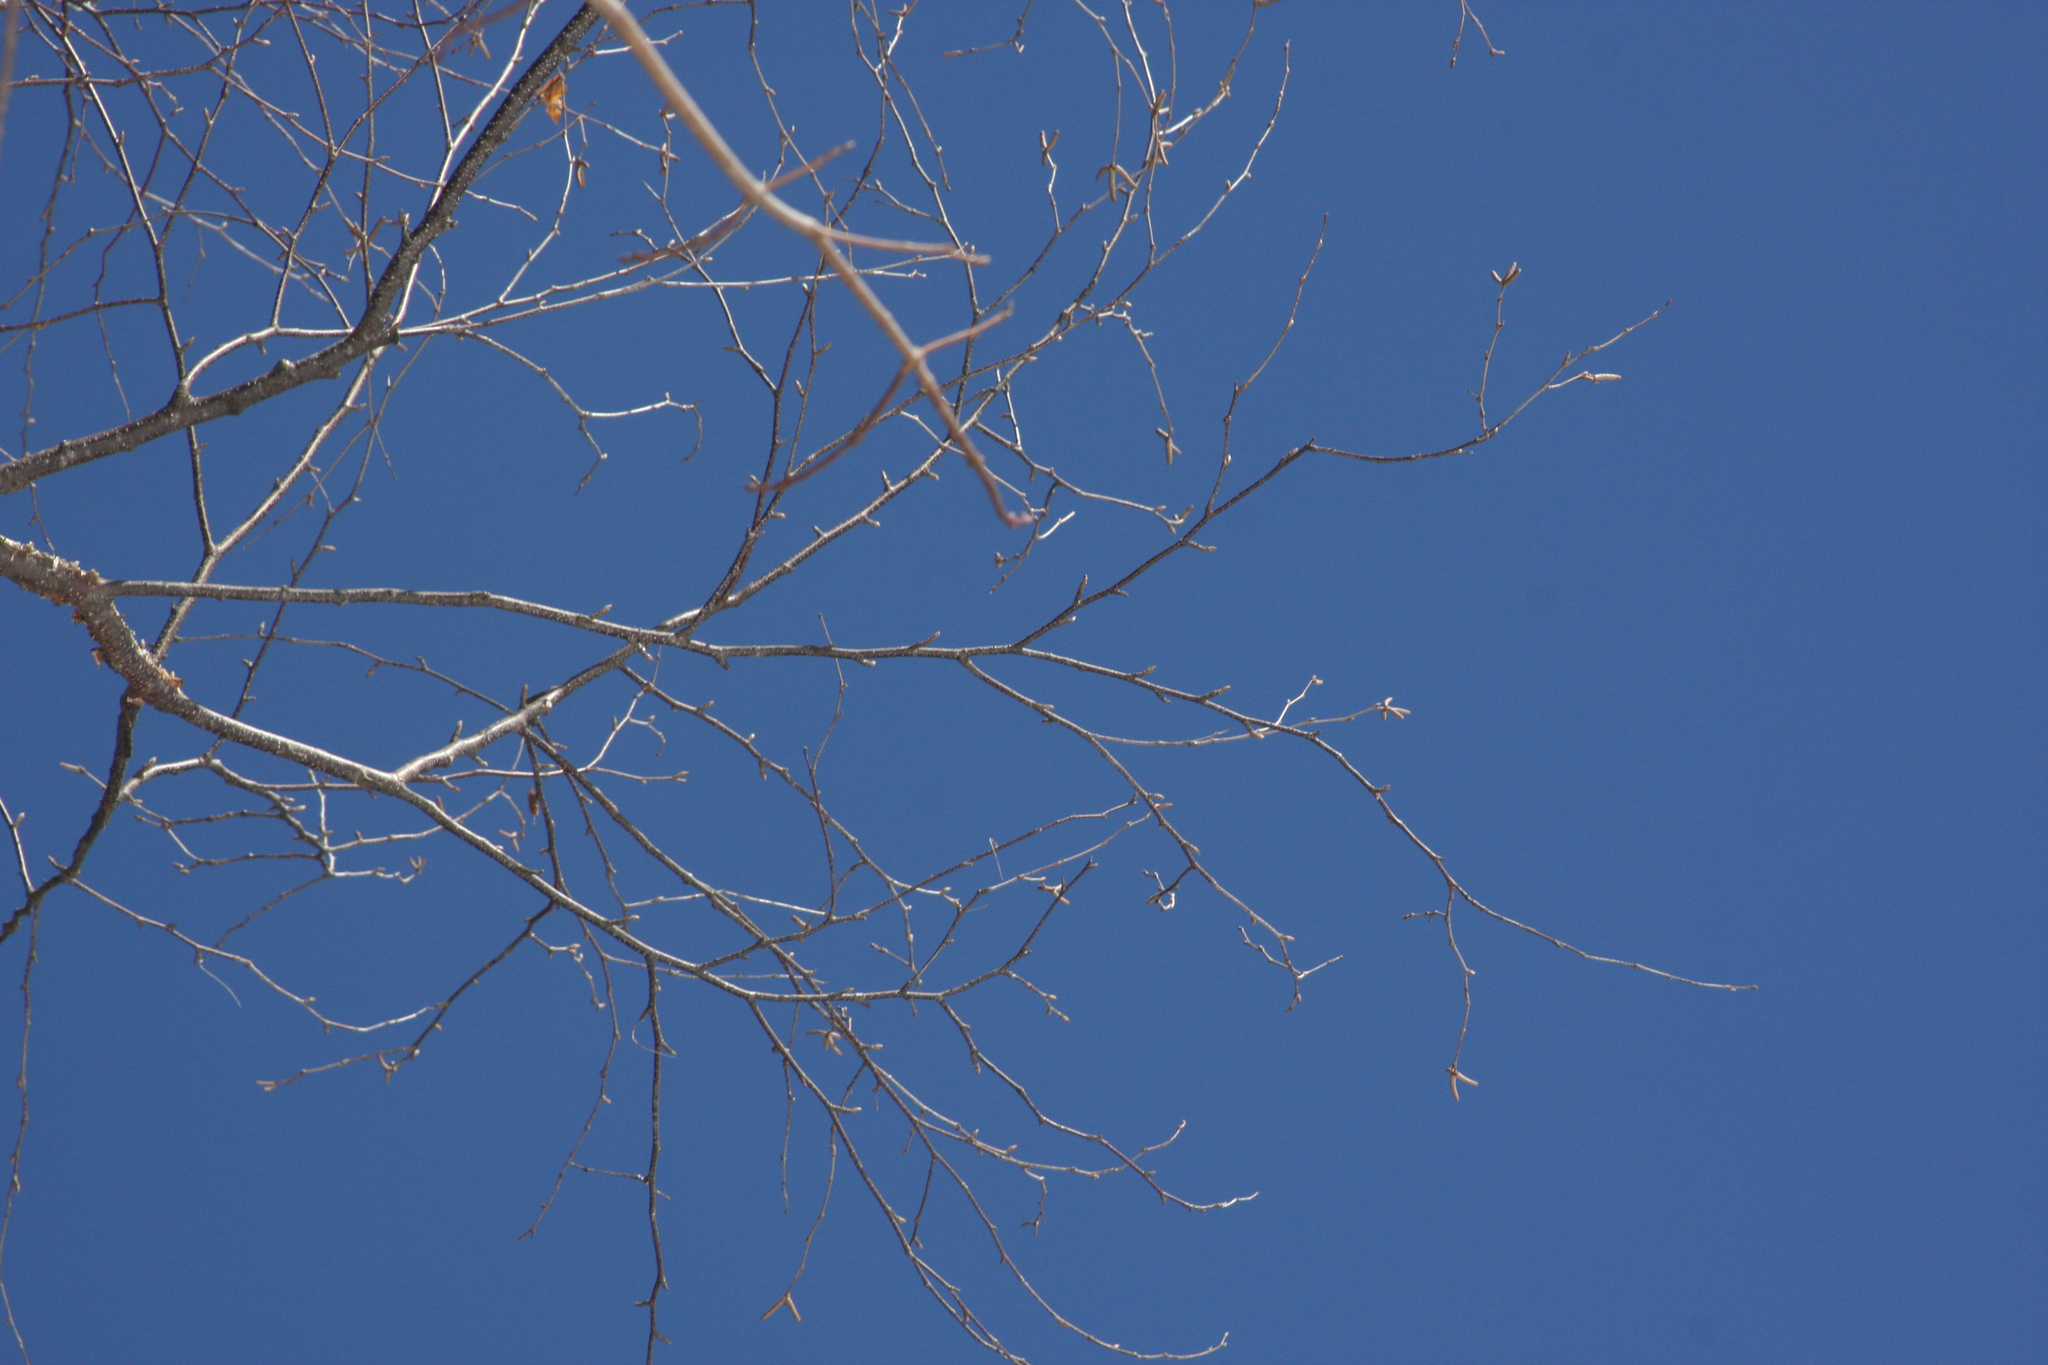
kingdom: Plantae
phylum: Tracheophyta
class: Magnoliopsida
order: Fagales
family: Betulaceae
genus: Betula
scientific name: Betula papyrifera
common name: Paper birch
